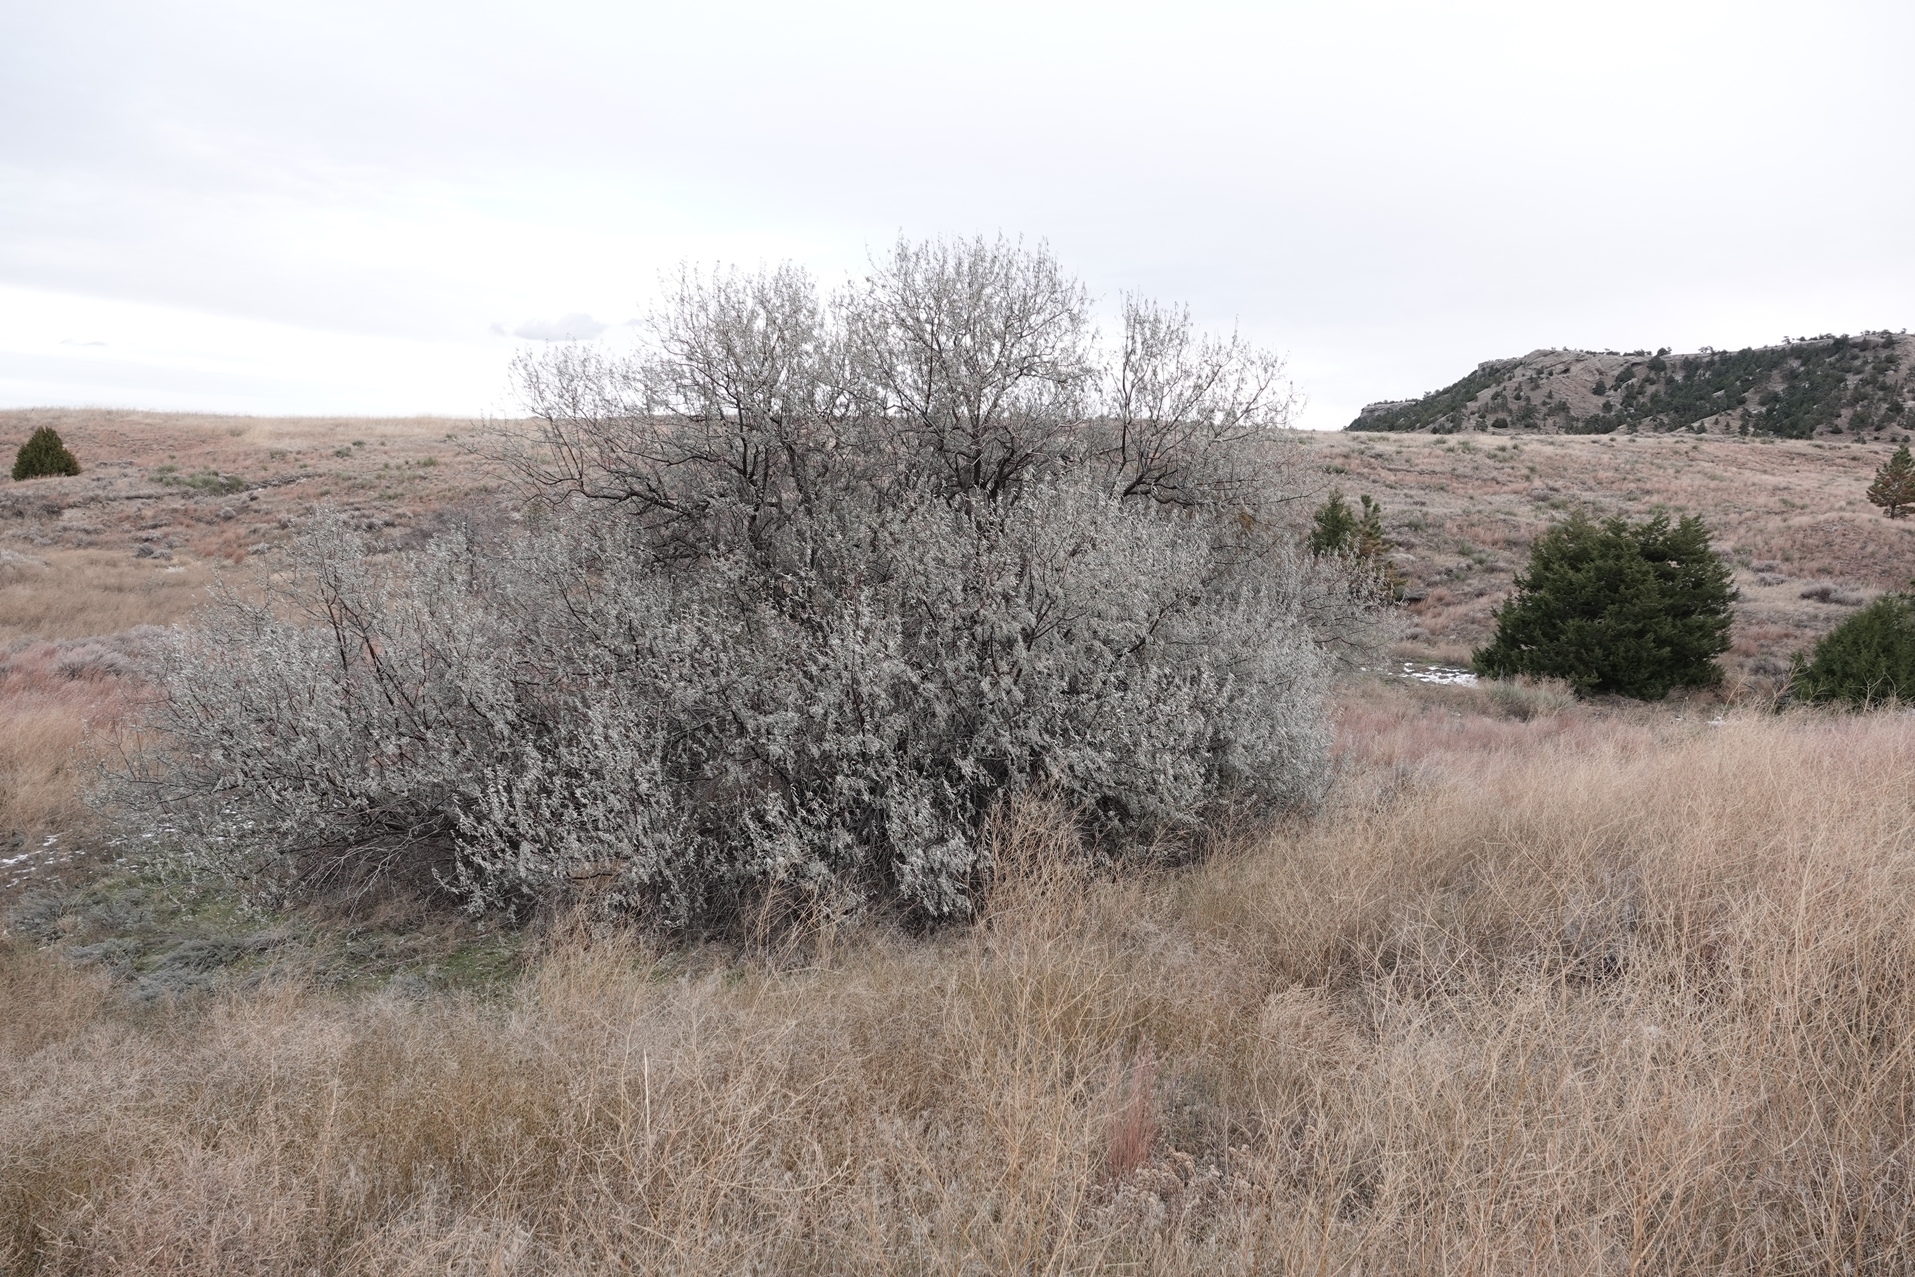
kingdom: Plantae
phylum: Tracheophyta
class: Magnoliopsida
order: Rosales
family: Elaeagnaceae
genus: Elaeagnus
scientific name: Elaeagnus angustifolia
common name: Russian olive
